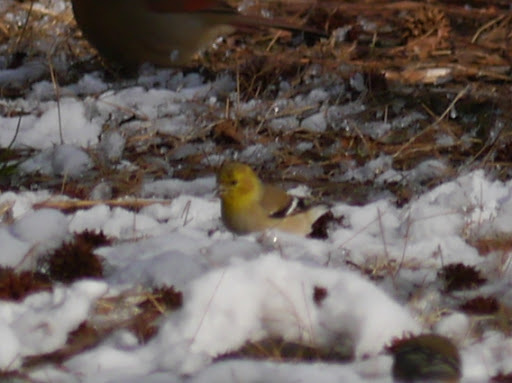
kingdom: Animalia
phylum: Chordata
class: Aves
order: Passeriformes
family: Fringillidae
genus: Spinus
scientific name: Spinus tristis
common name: American goldfinch
